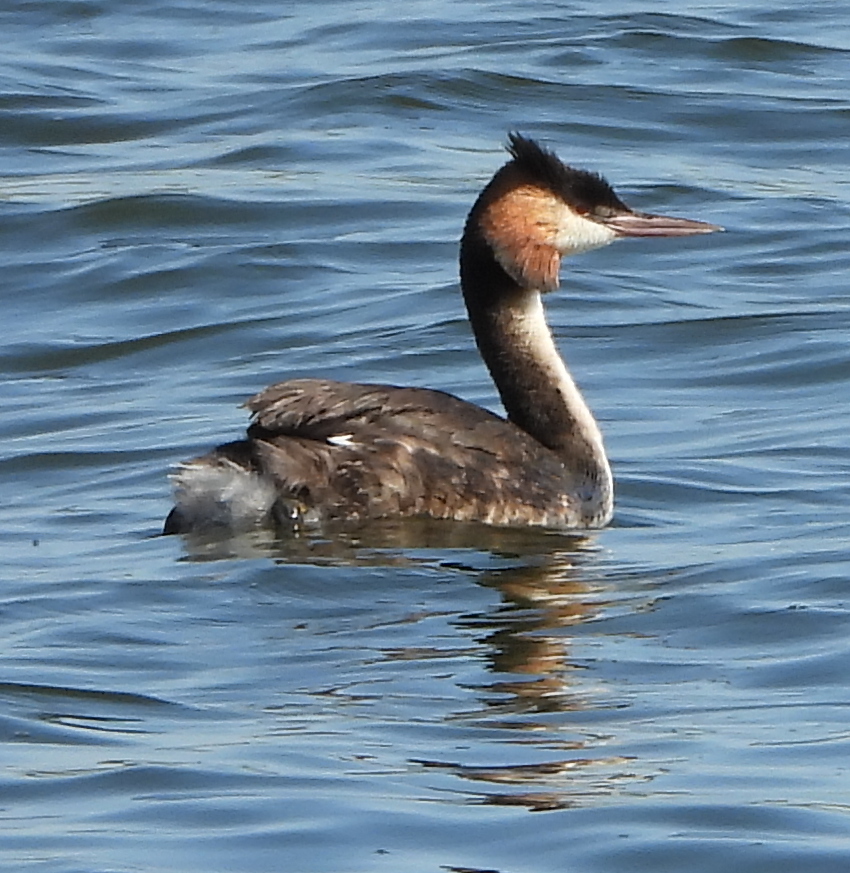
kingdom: Animalia
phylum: Chordata
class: Aves
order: Podicipediformes
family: Podicipedidae
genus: Podiceps
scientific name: Podiceps cristatus
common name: Great crested grebe
